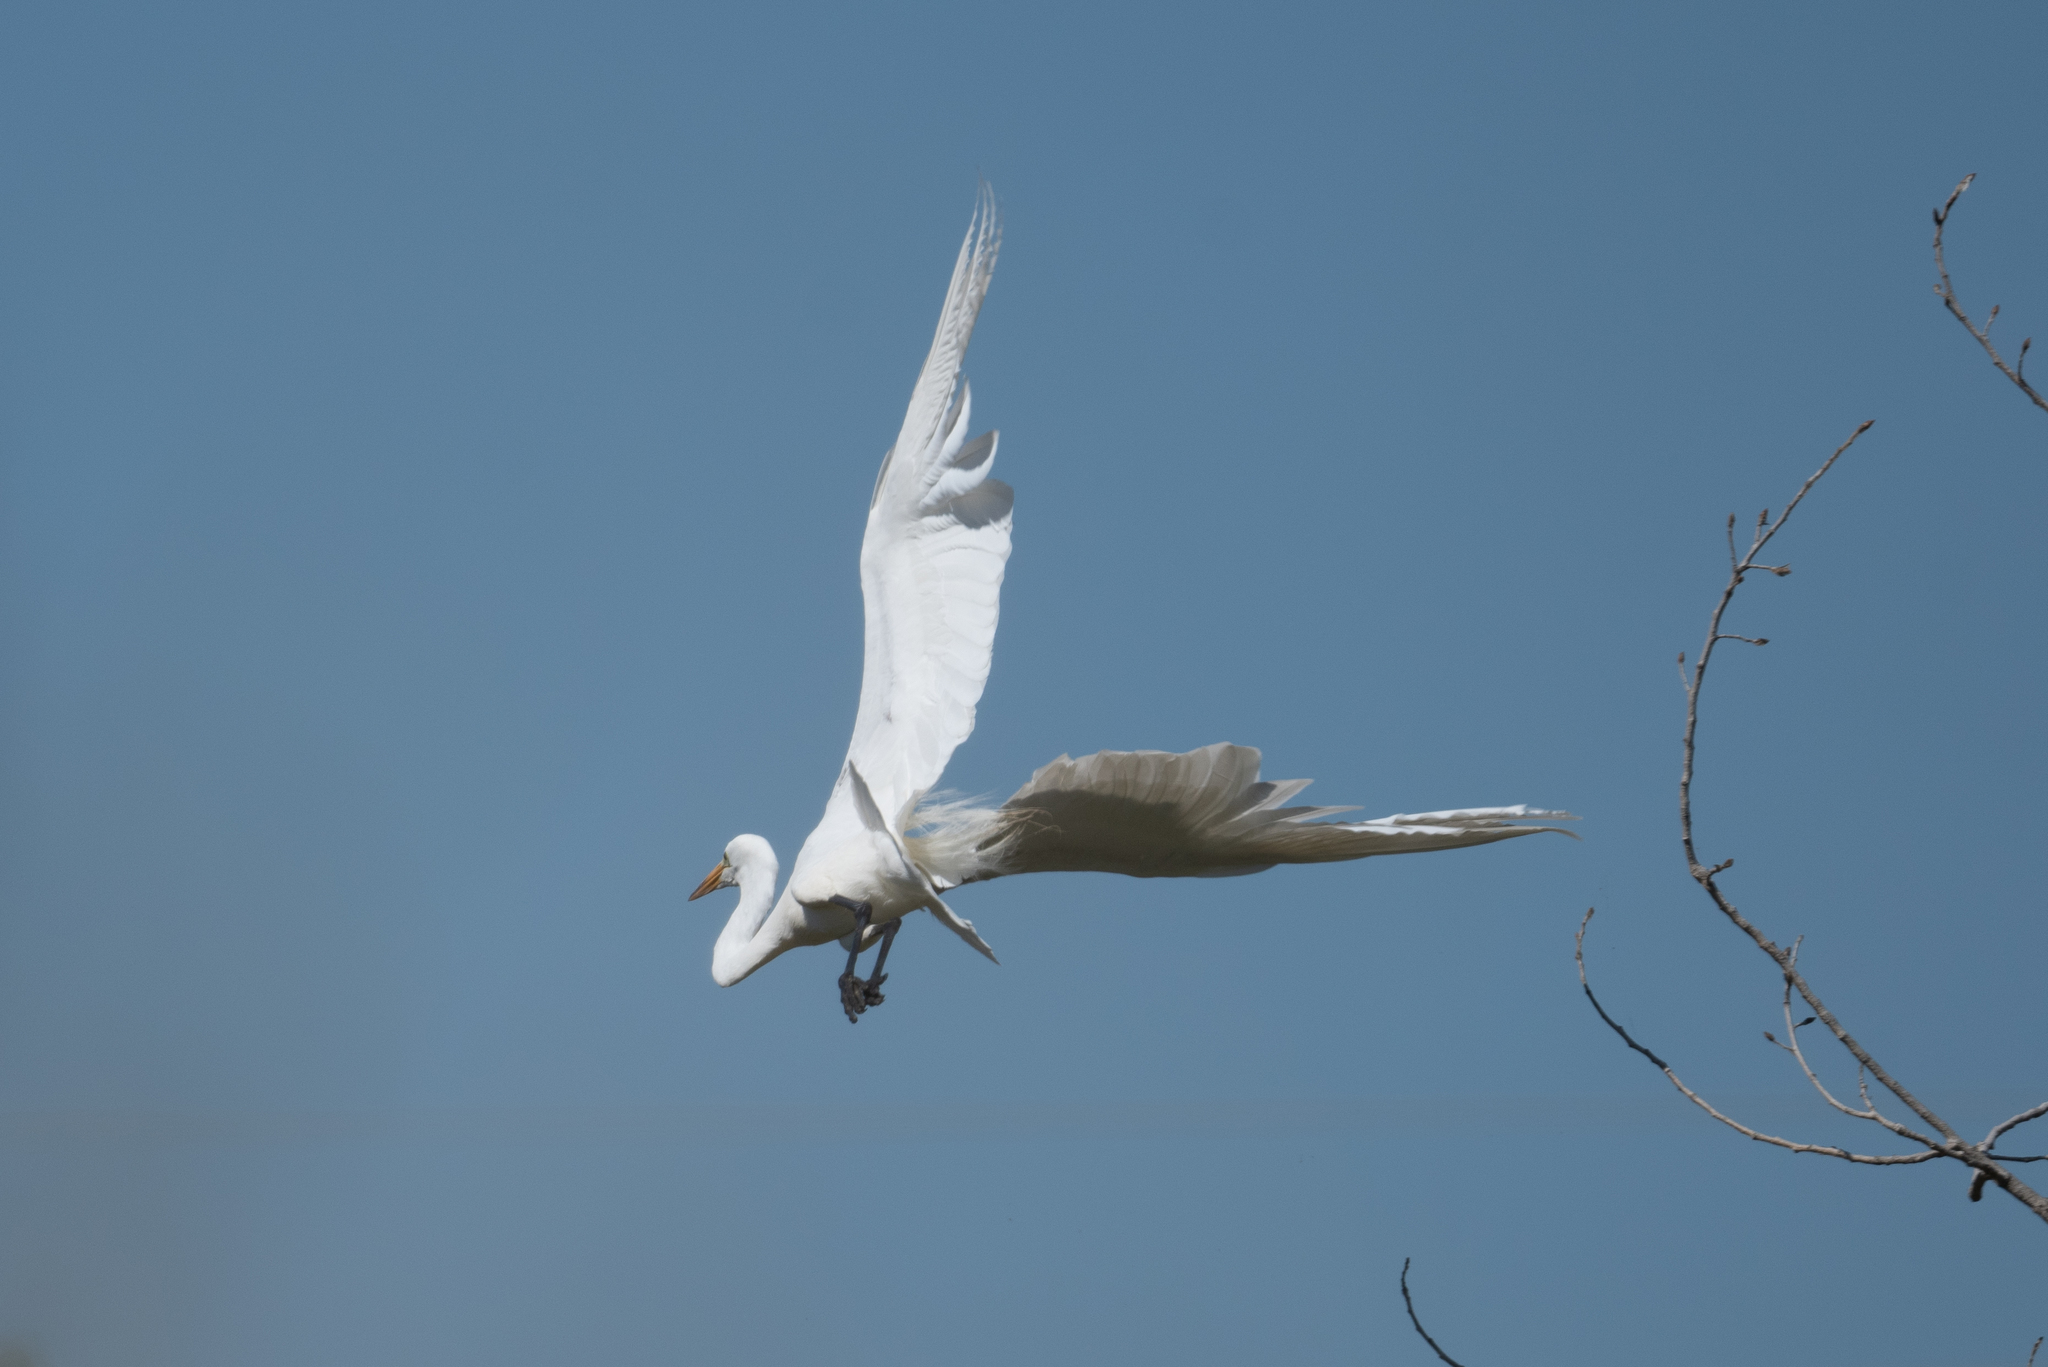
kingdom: Animalia
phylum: Chordata
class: Aves
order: Pelecaniformes
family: Ardeidae
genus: Ardea
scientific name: Ardea alba
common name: Great egret
